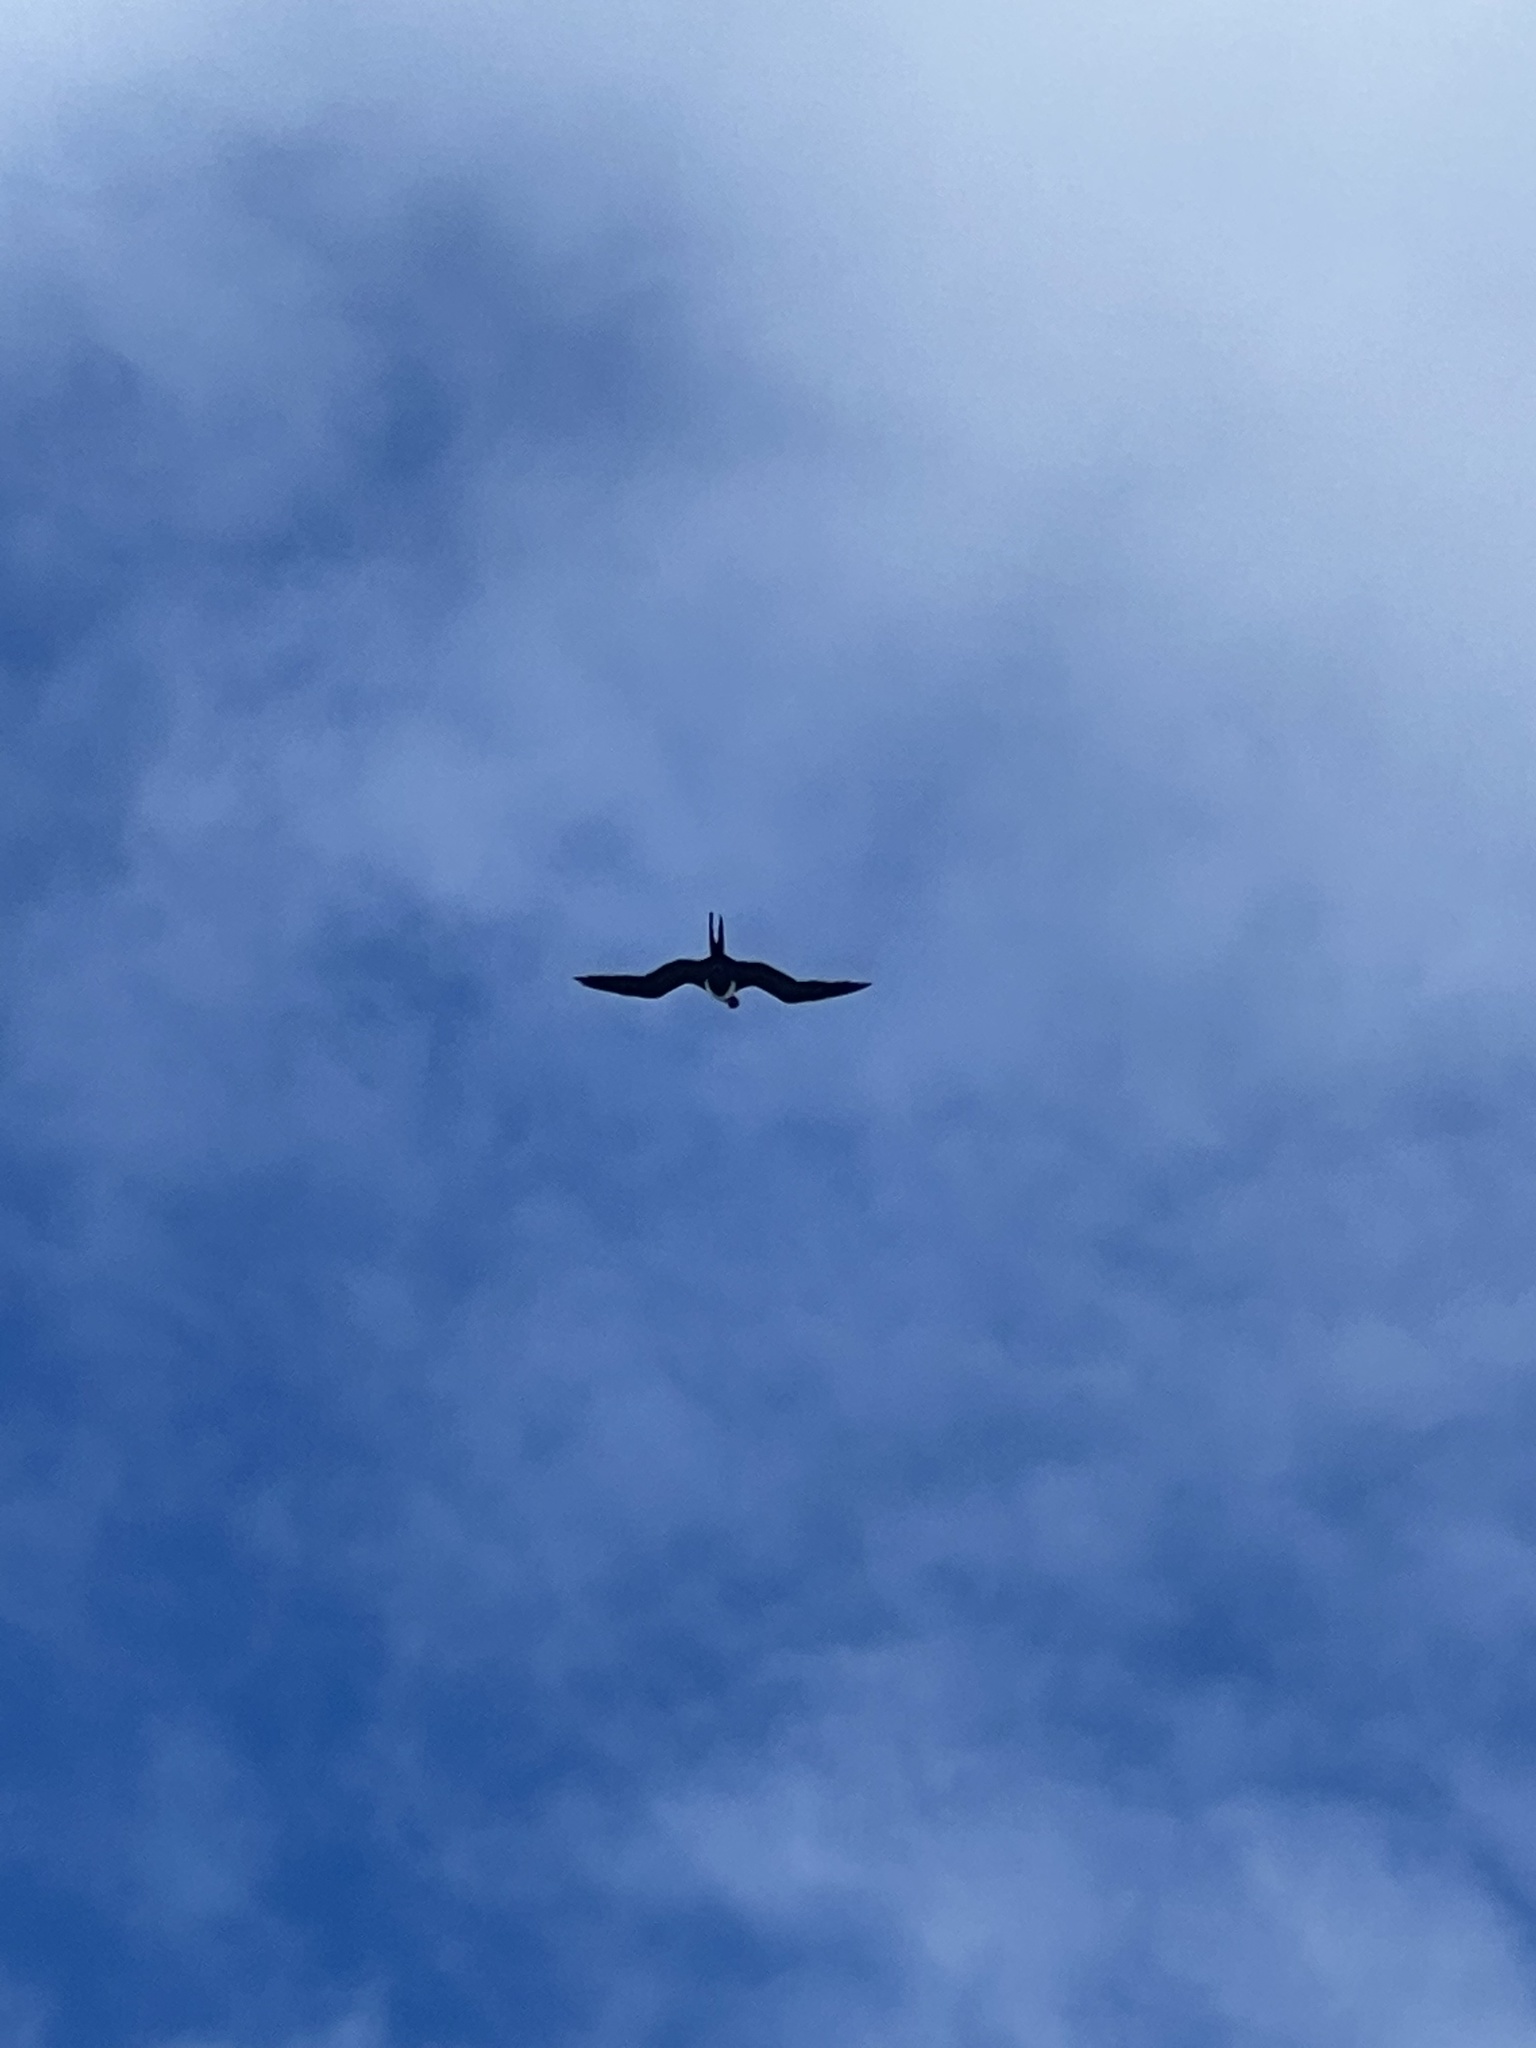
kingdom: Animalia
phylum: Chordata
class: Aves
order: Suliformes
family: Fregatidae
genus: Fregata
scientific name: Fregata minor
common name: Great frigatebird
